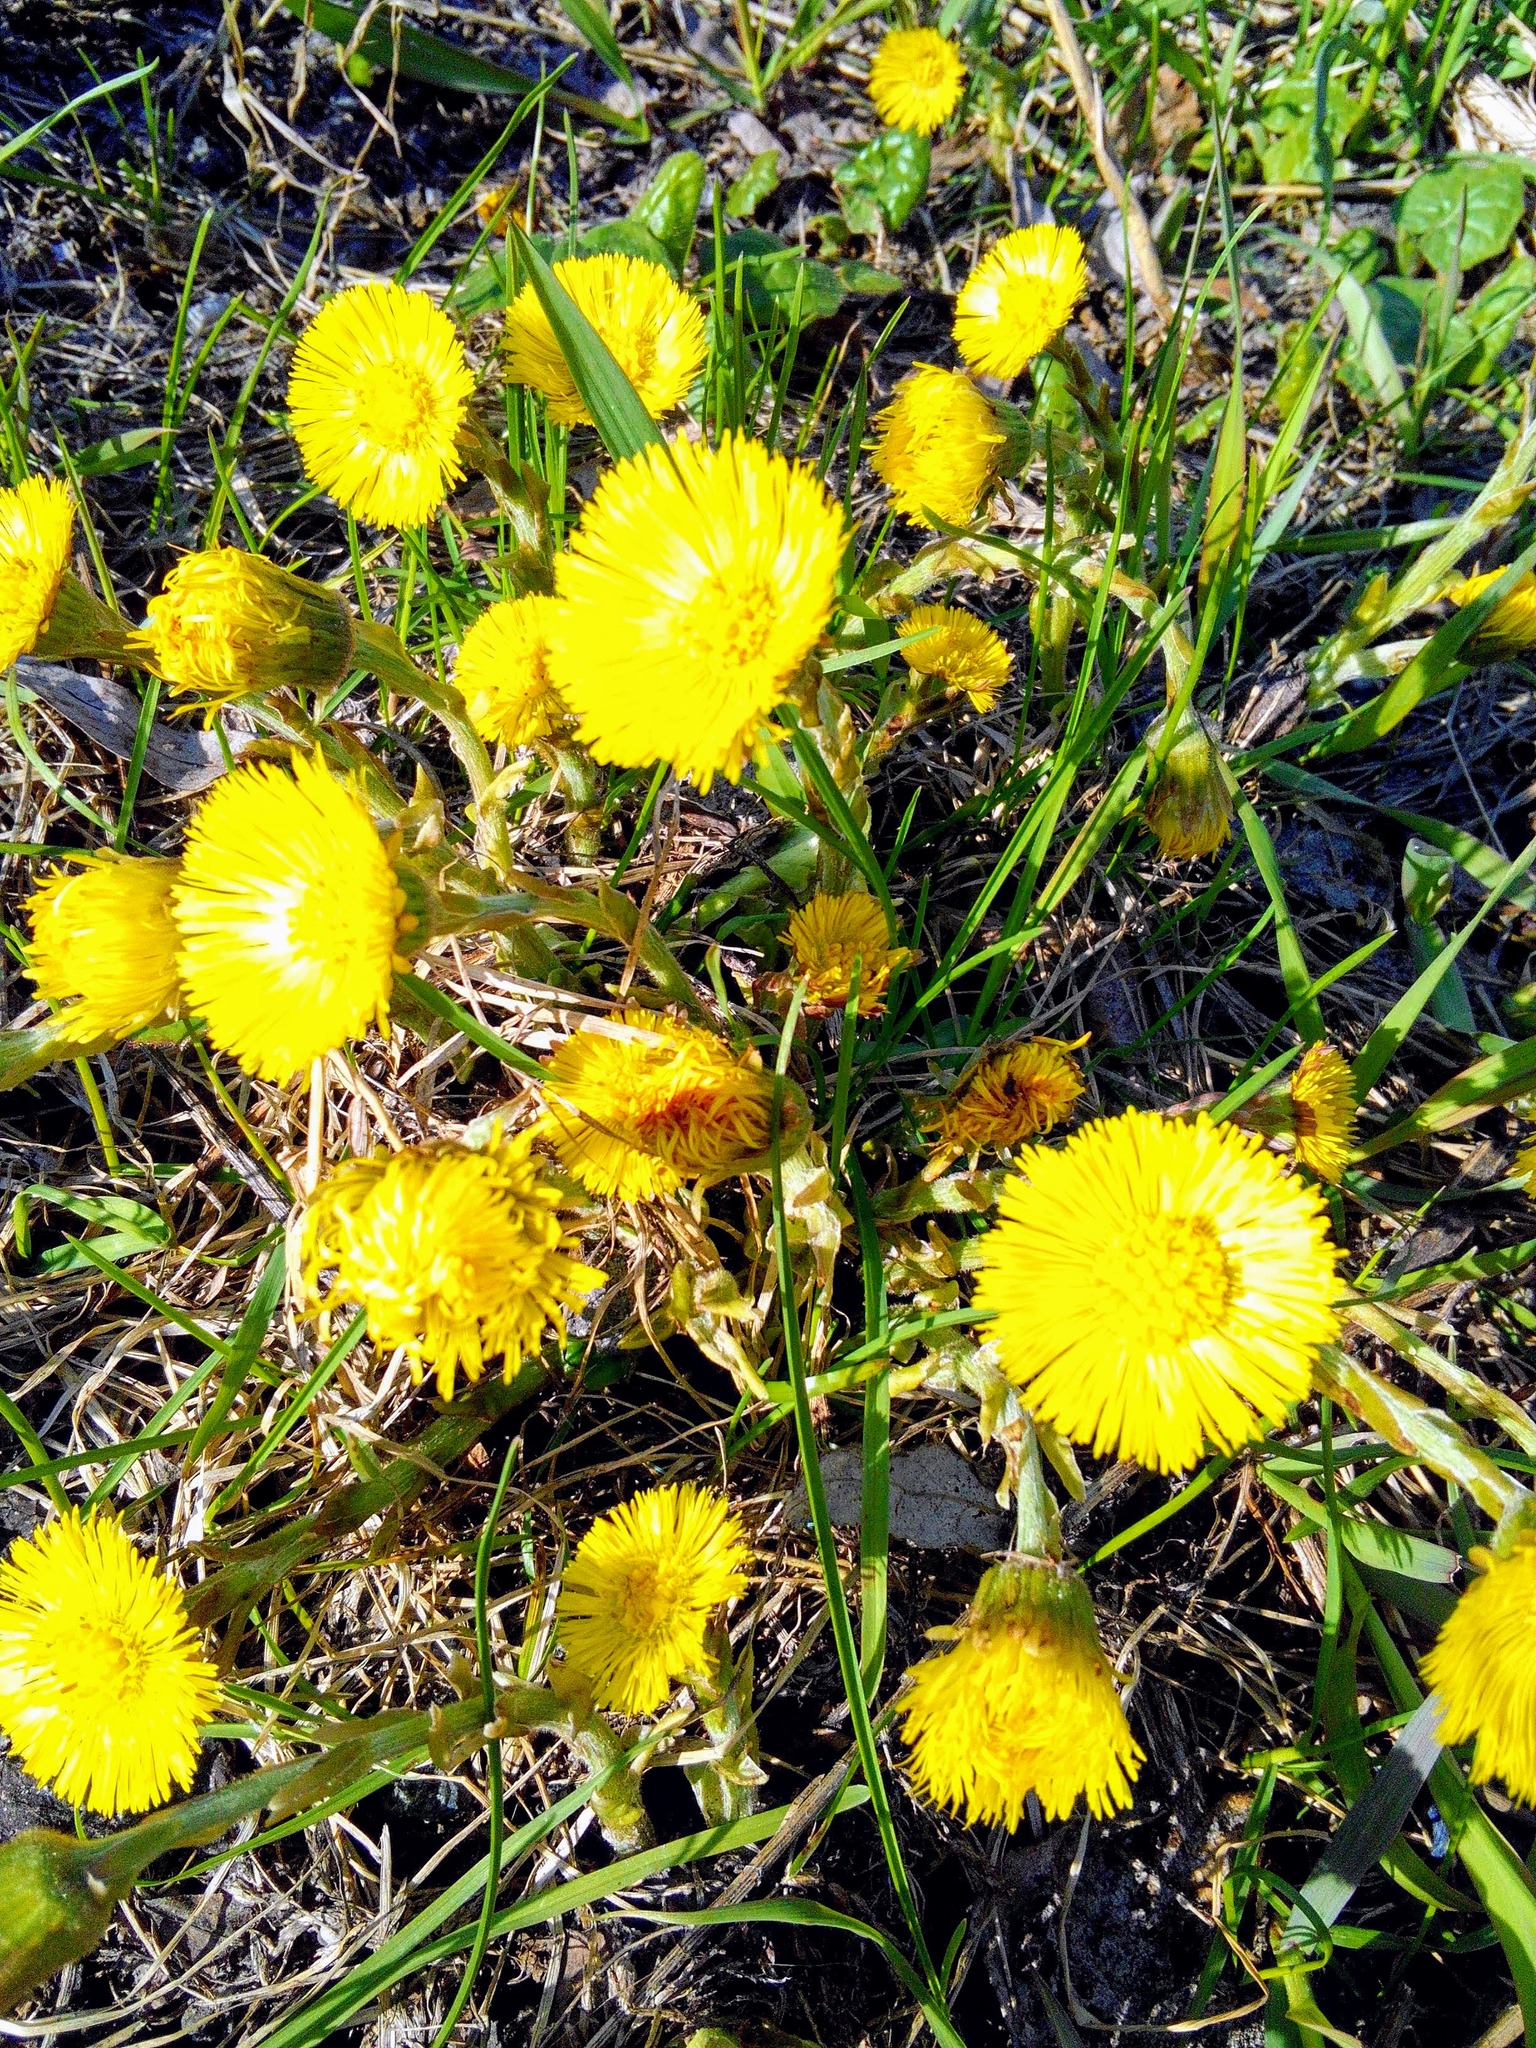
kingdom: Plantae
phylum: Tracheophyta
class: Magnoliopsida
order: Asterales
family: Asteraceae
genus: Tussilago
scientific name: Tussilago farfara
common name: Coltsfoot
